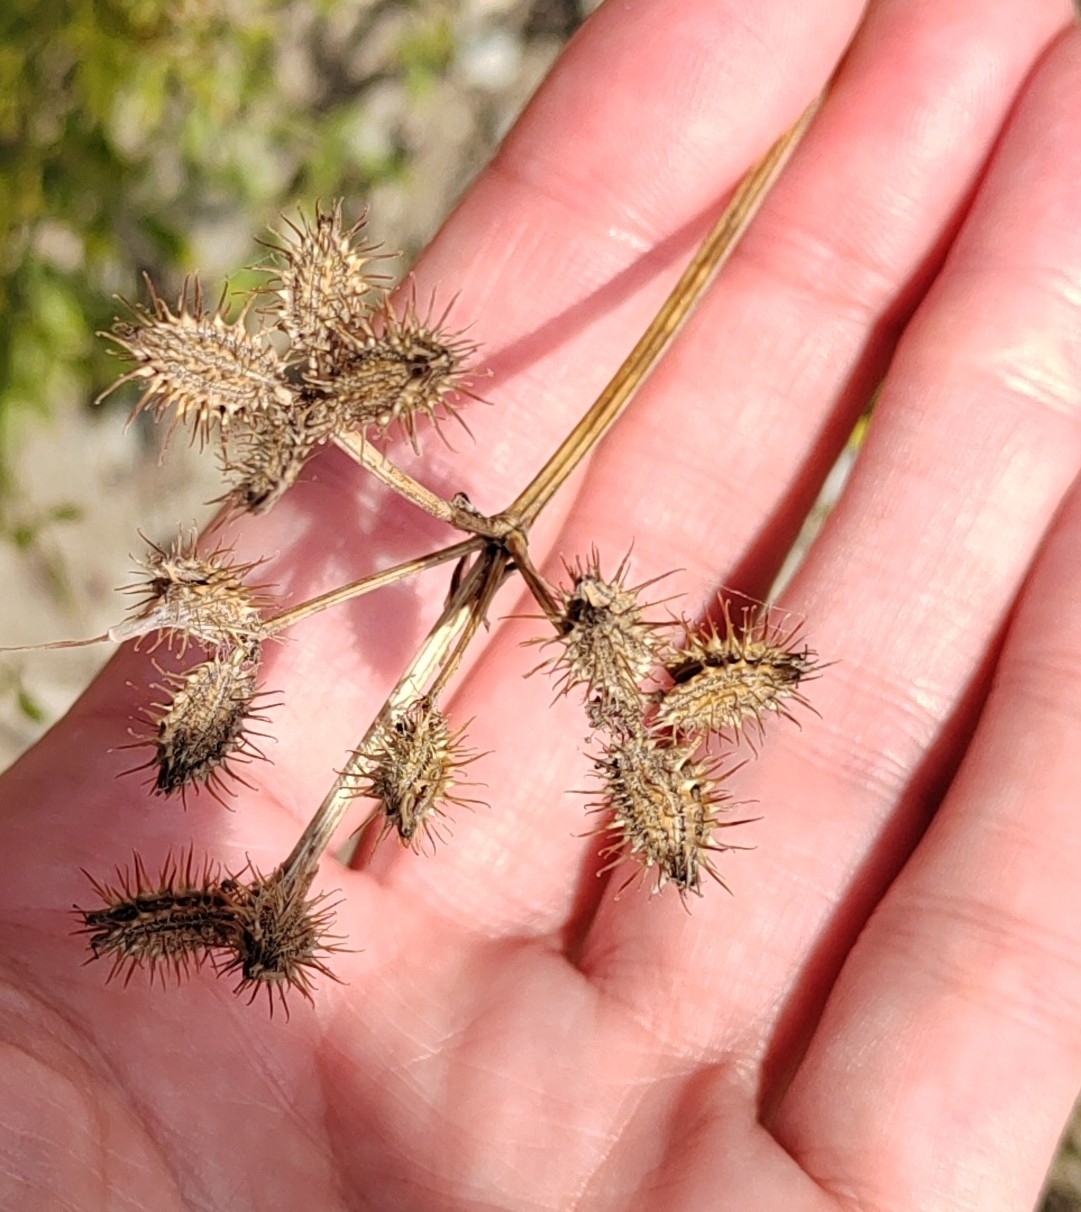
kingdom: Plantae
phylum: Tracheophyta
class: Magnoliopsida
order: Apiales
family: Apiaceae
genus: Orlaya
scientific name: Orlaya daucoides
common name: Flat-fruit orlaya
